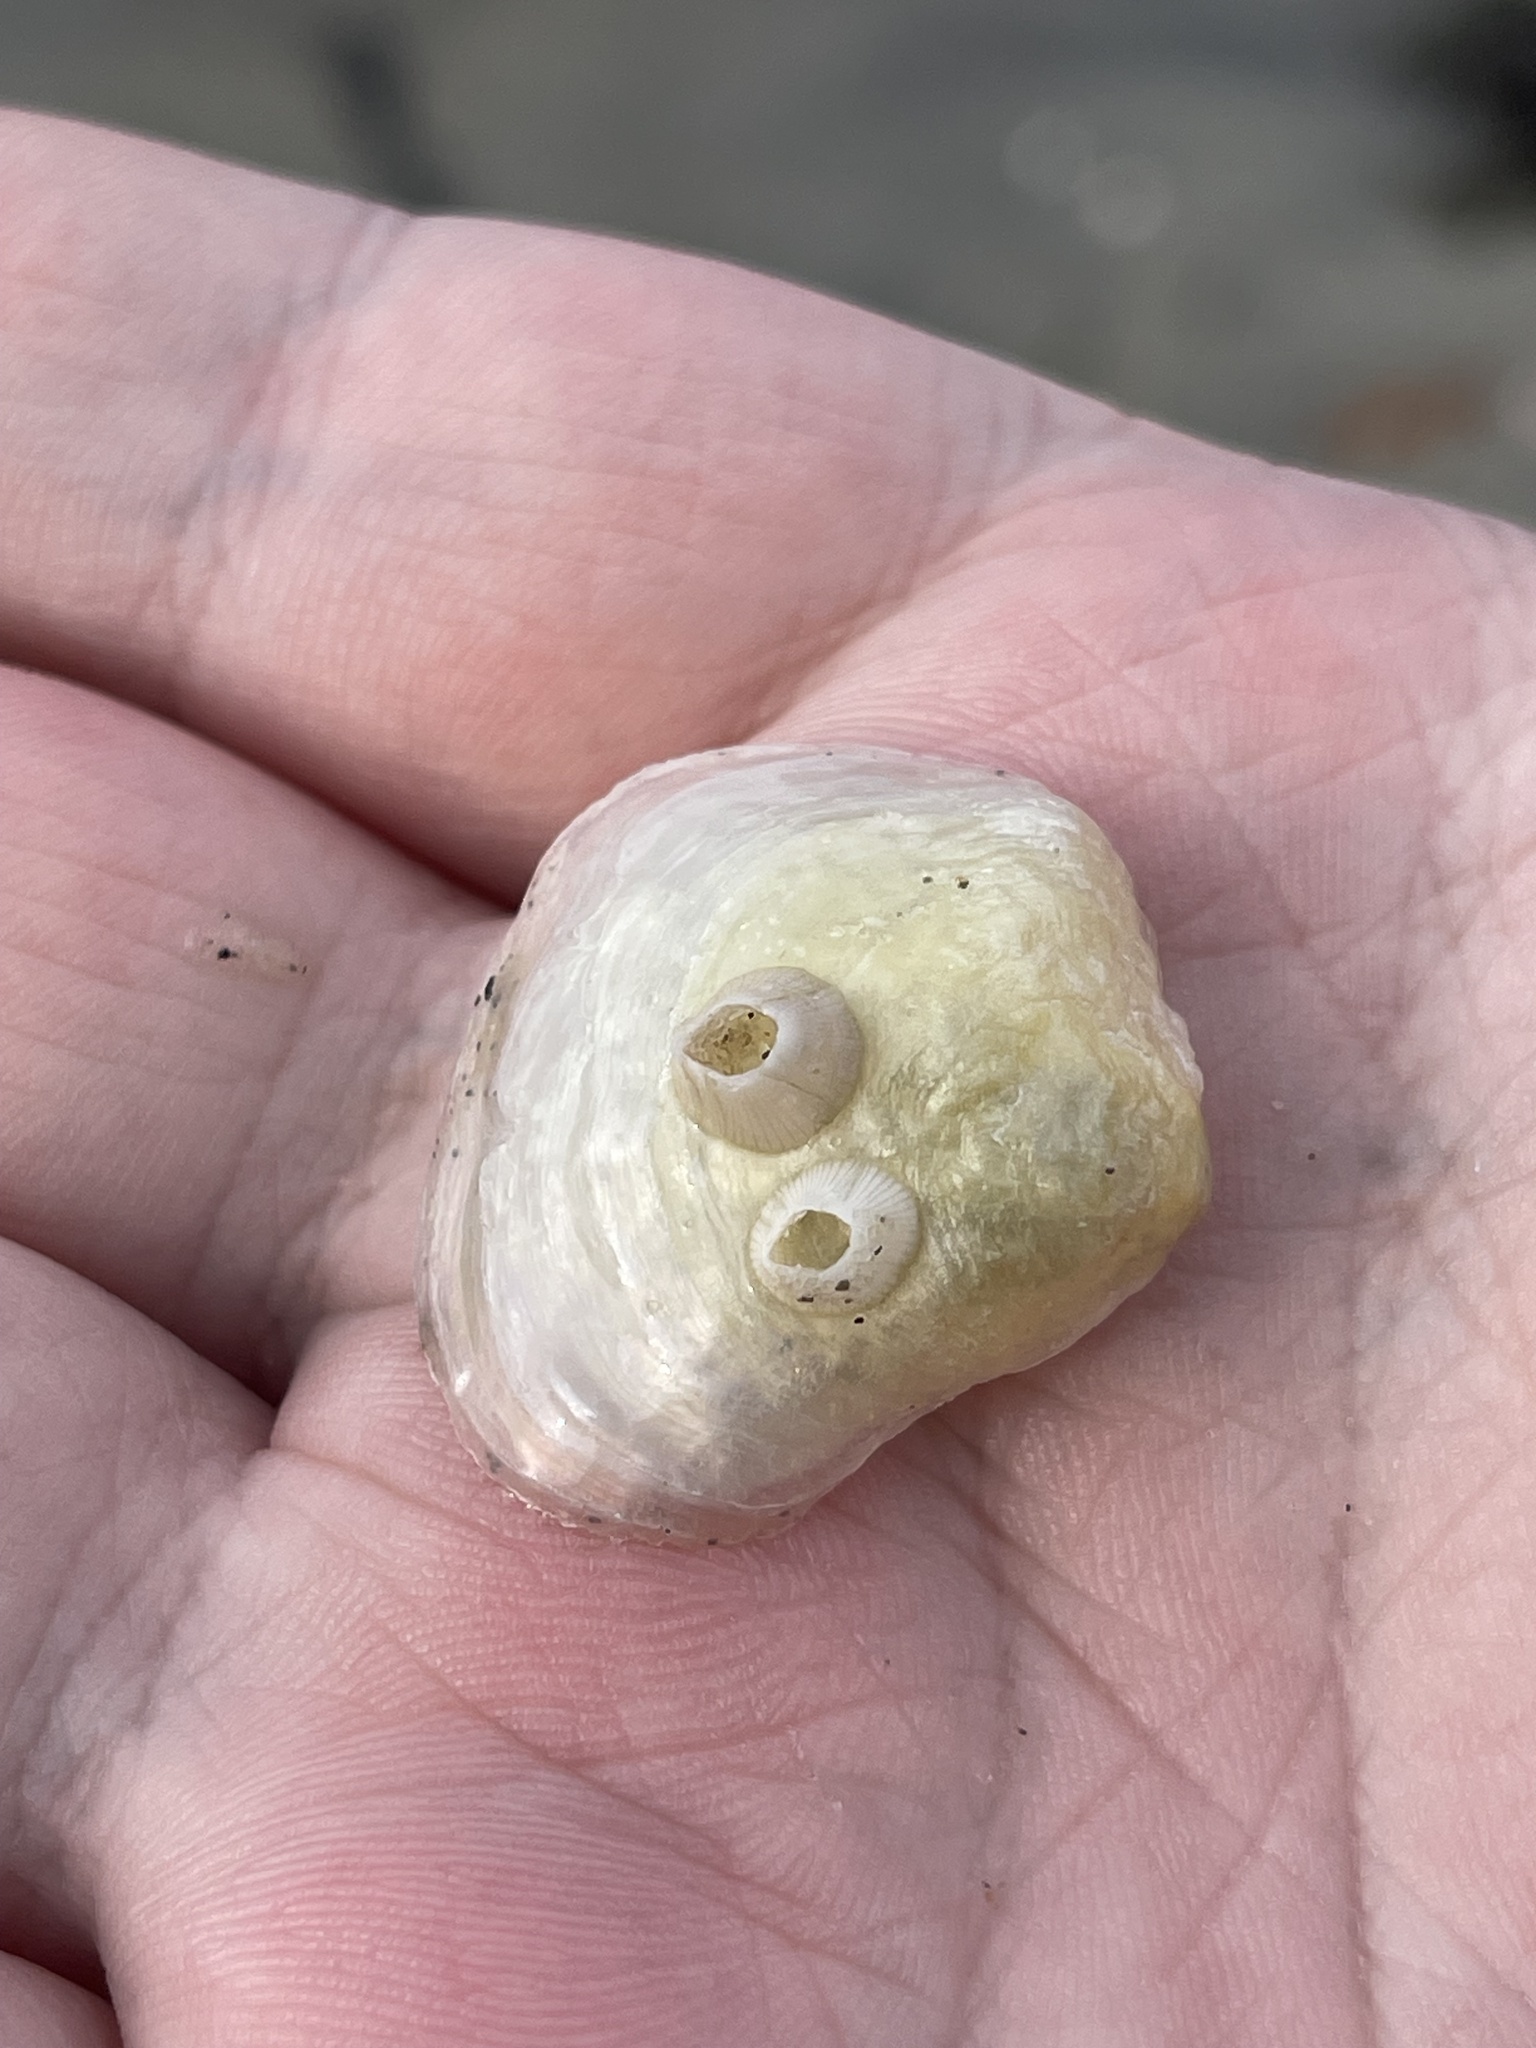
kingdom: Animalia
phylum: Mollusca
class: Bivalvia
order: Pectinida
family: Anomiidae
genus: Anomia
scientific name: Anomia simplex
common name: Common jingle shell
